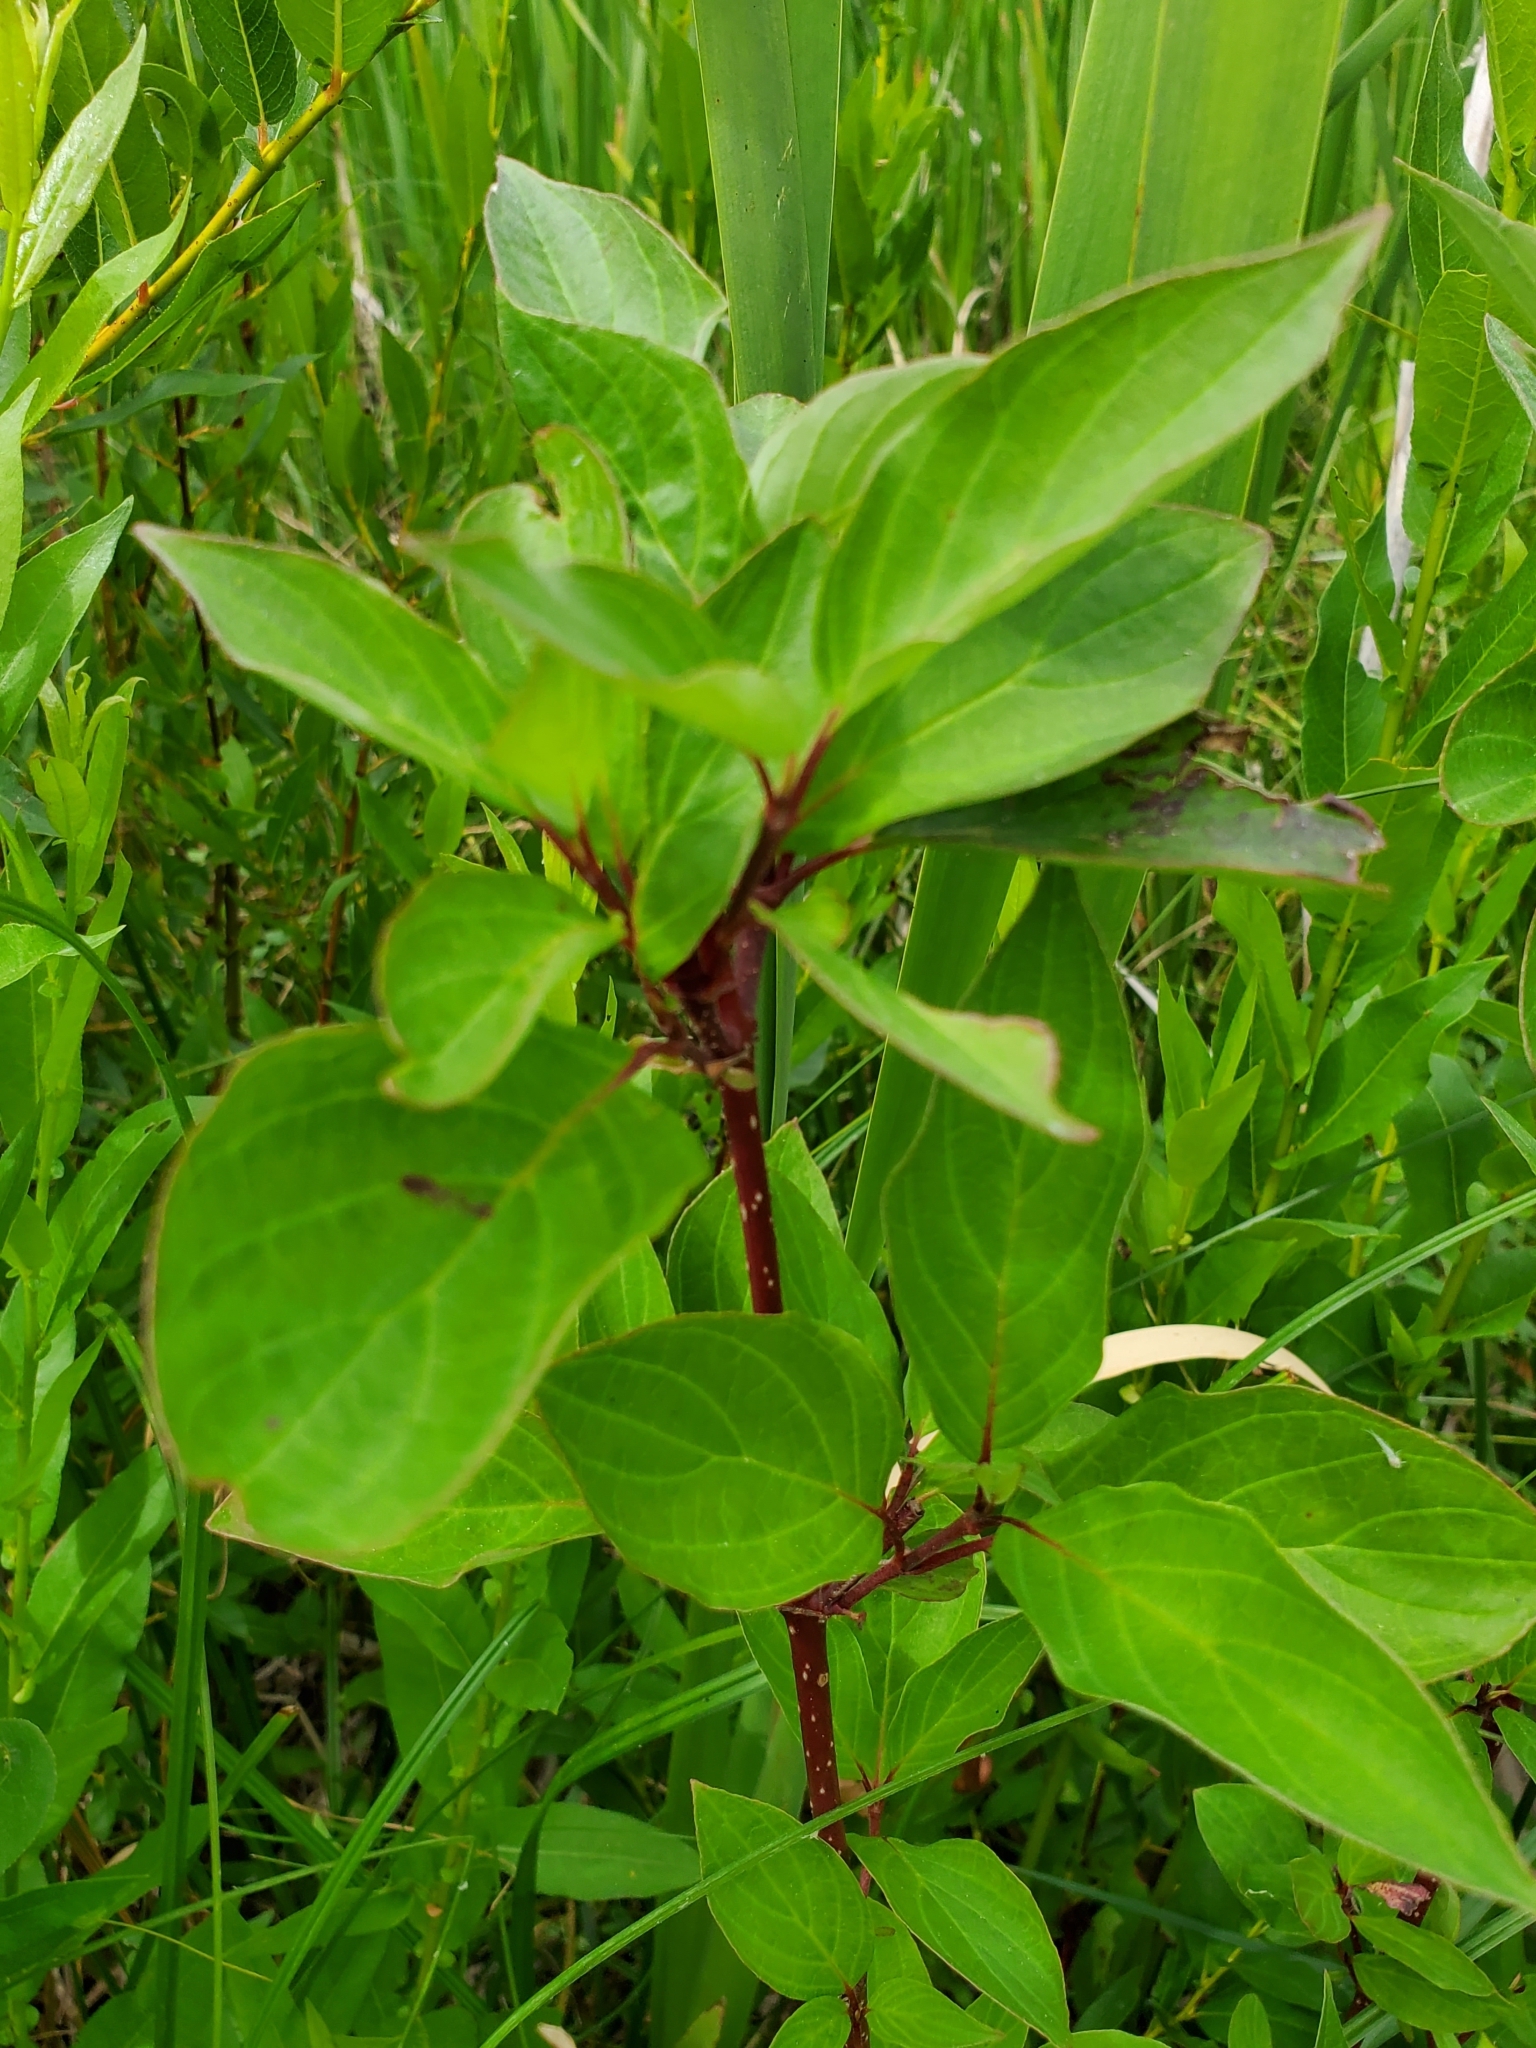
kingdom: Plantae
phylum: Tracheophyta
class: Magnoliopsida
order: Cornales
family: Cornaceae
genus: Cornus
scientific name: Cornus sericea
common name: Red-osier dogwood
